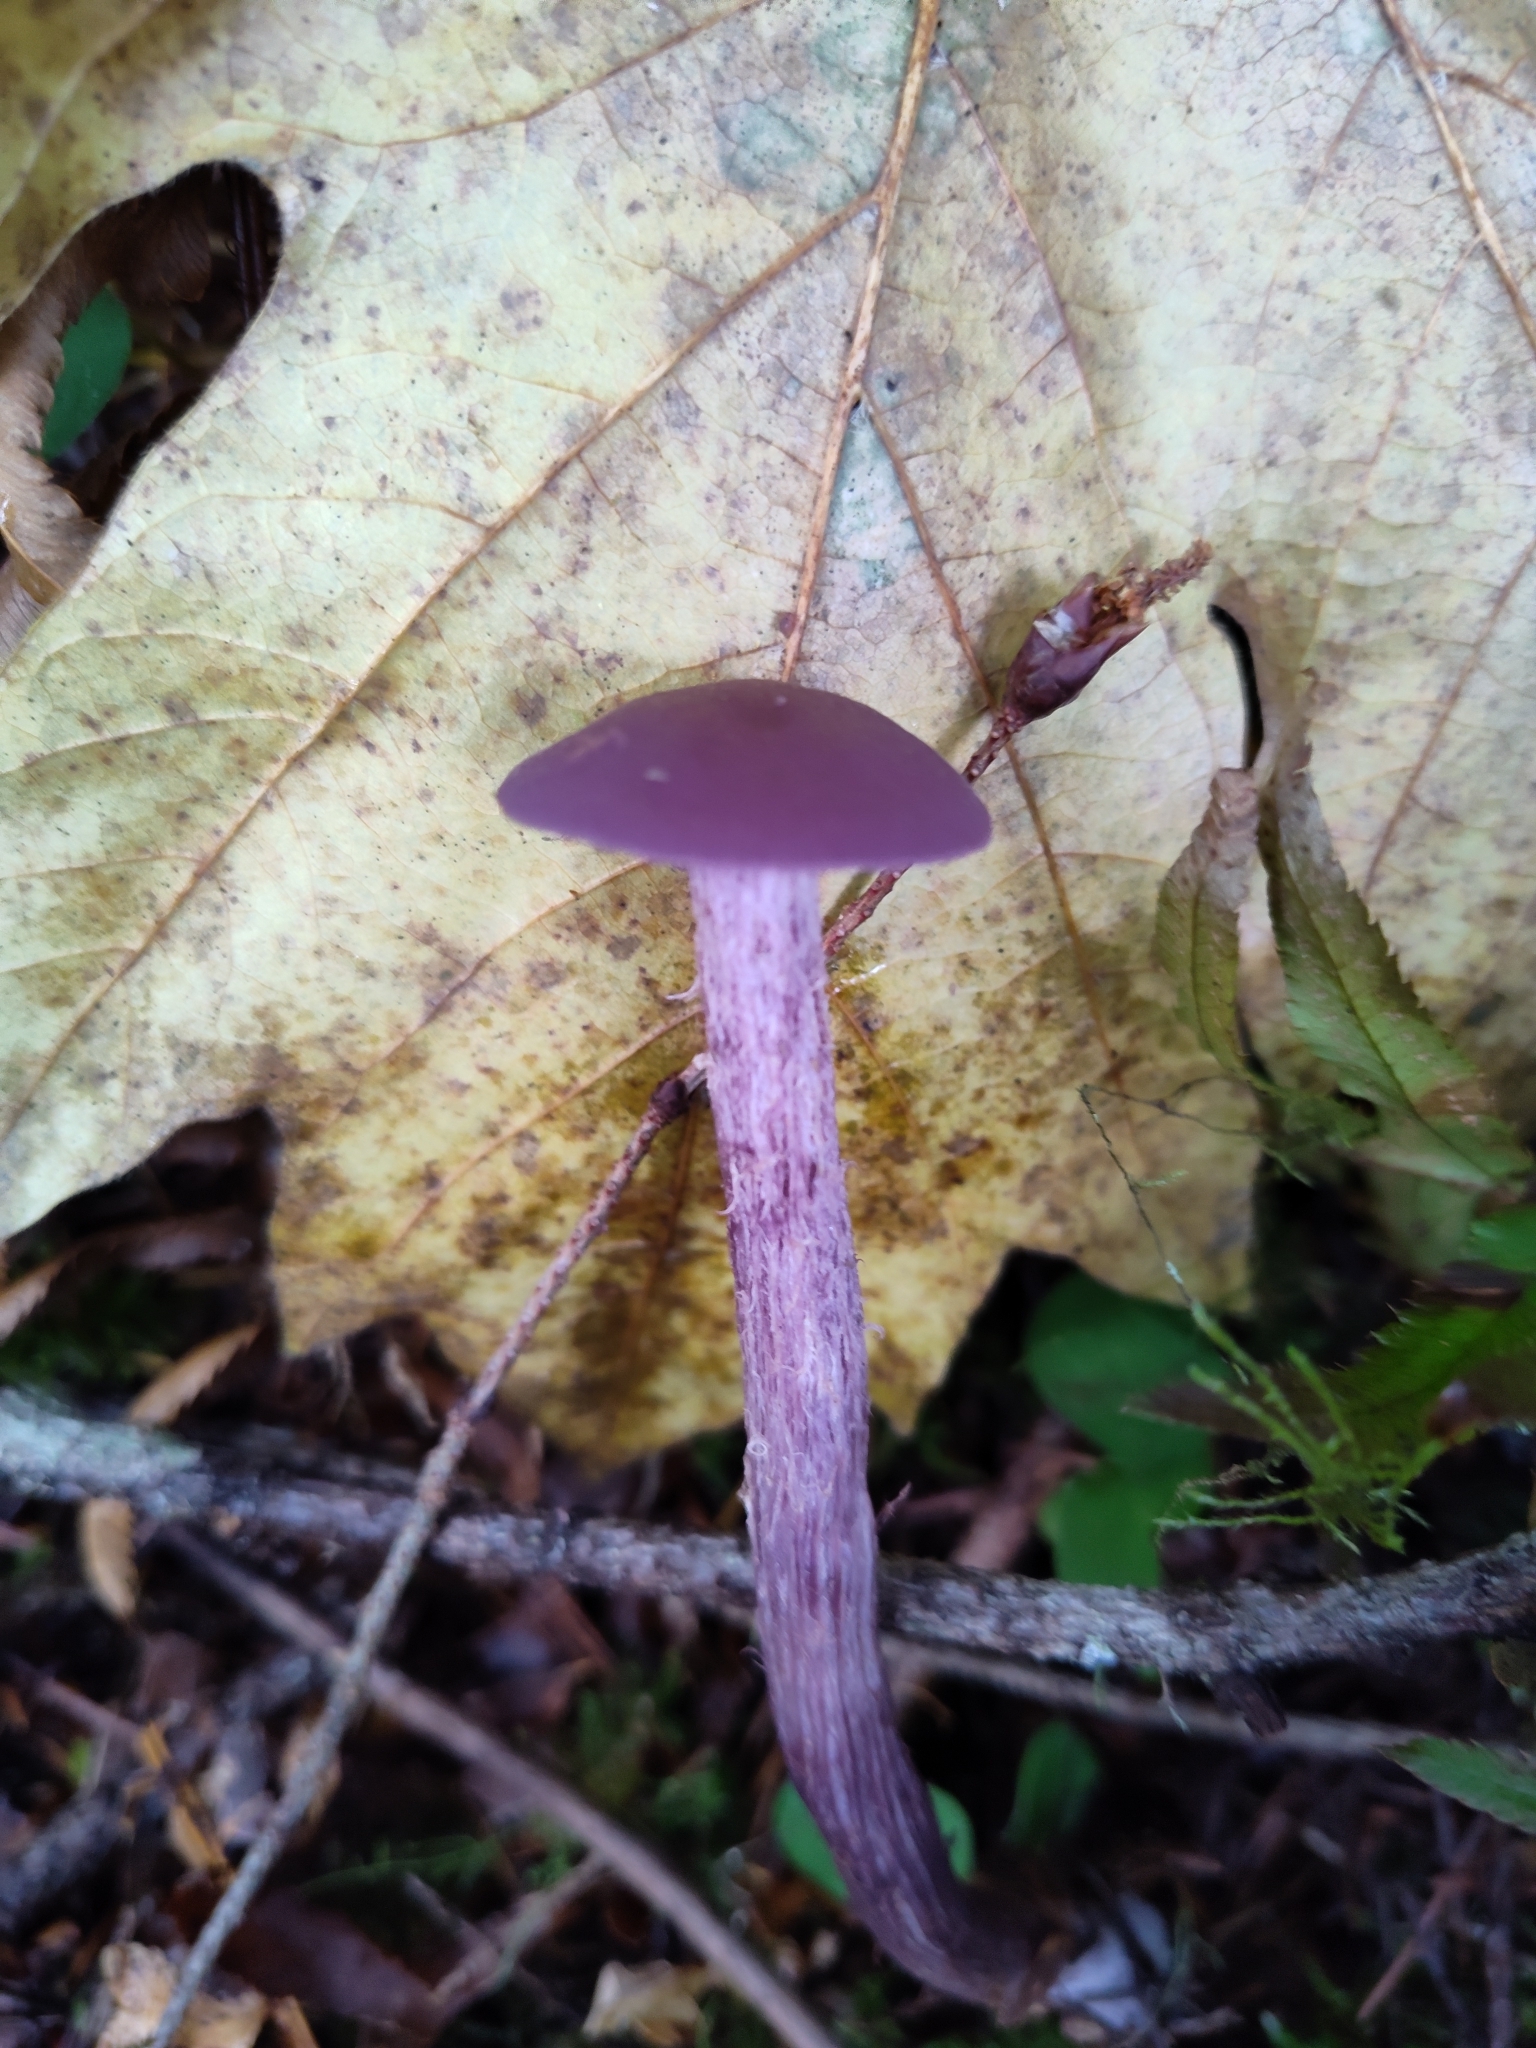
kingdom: Fungi
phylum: Basidiomycota
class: Agaricomycetes
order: Agaricales
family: Hydnangiaceae
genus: Laccaria
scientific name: Laccaria amethysteo-occidentalis
